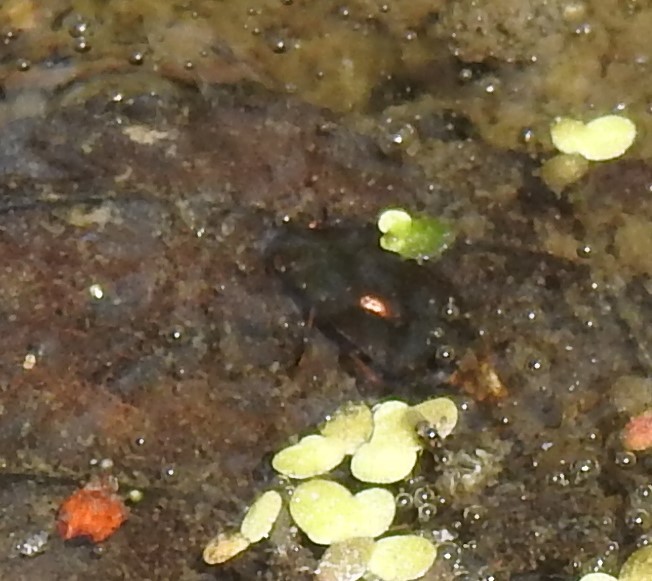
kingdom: Animalia
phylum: Arthropoda
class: Insecta
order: Coleoptera
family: Hydrophilidae
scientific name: Hydrophilidae
